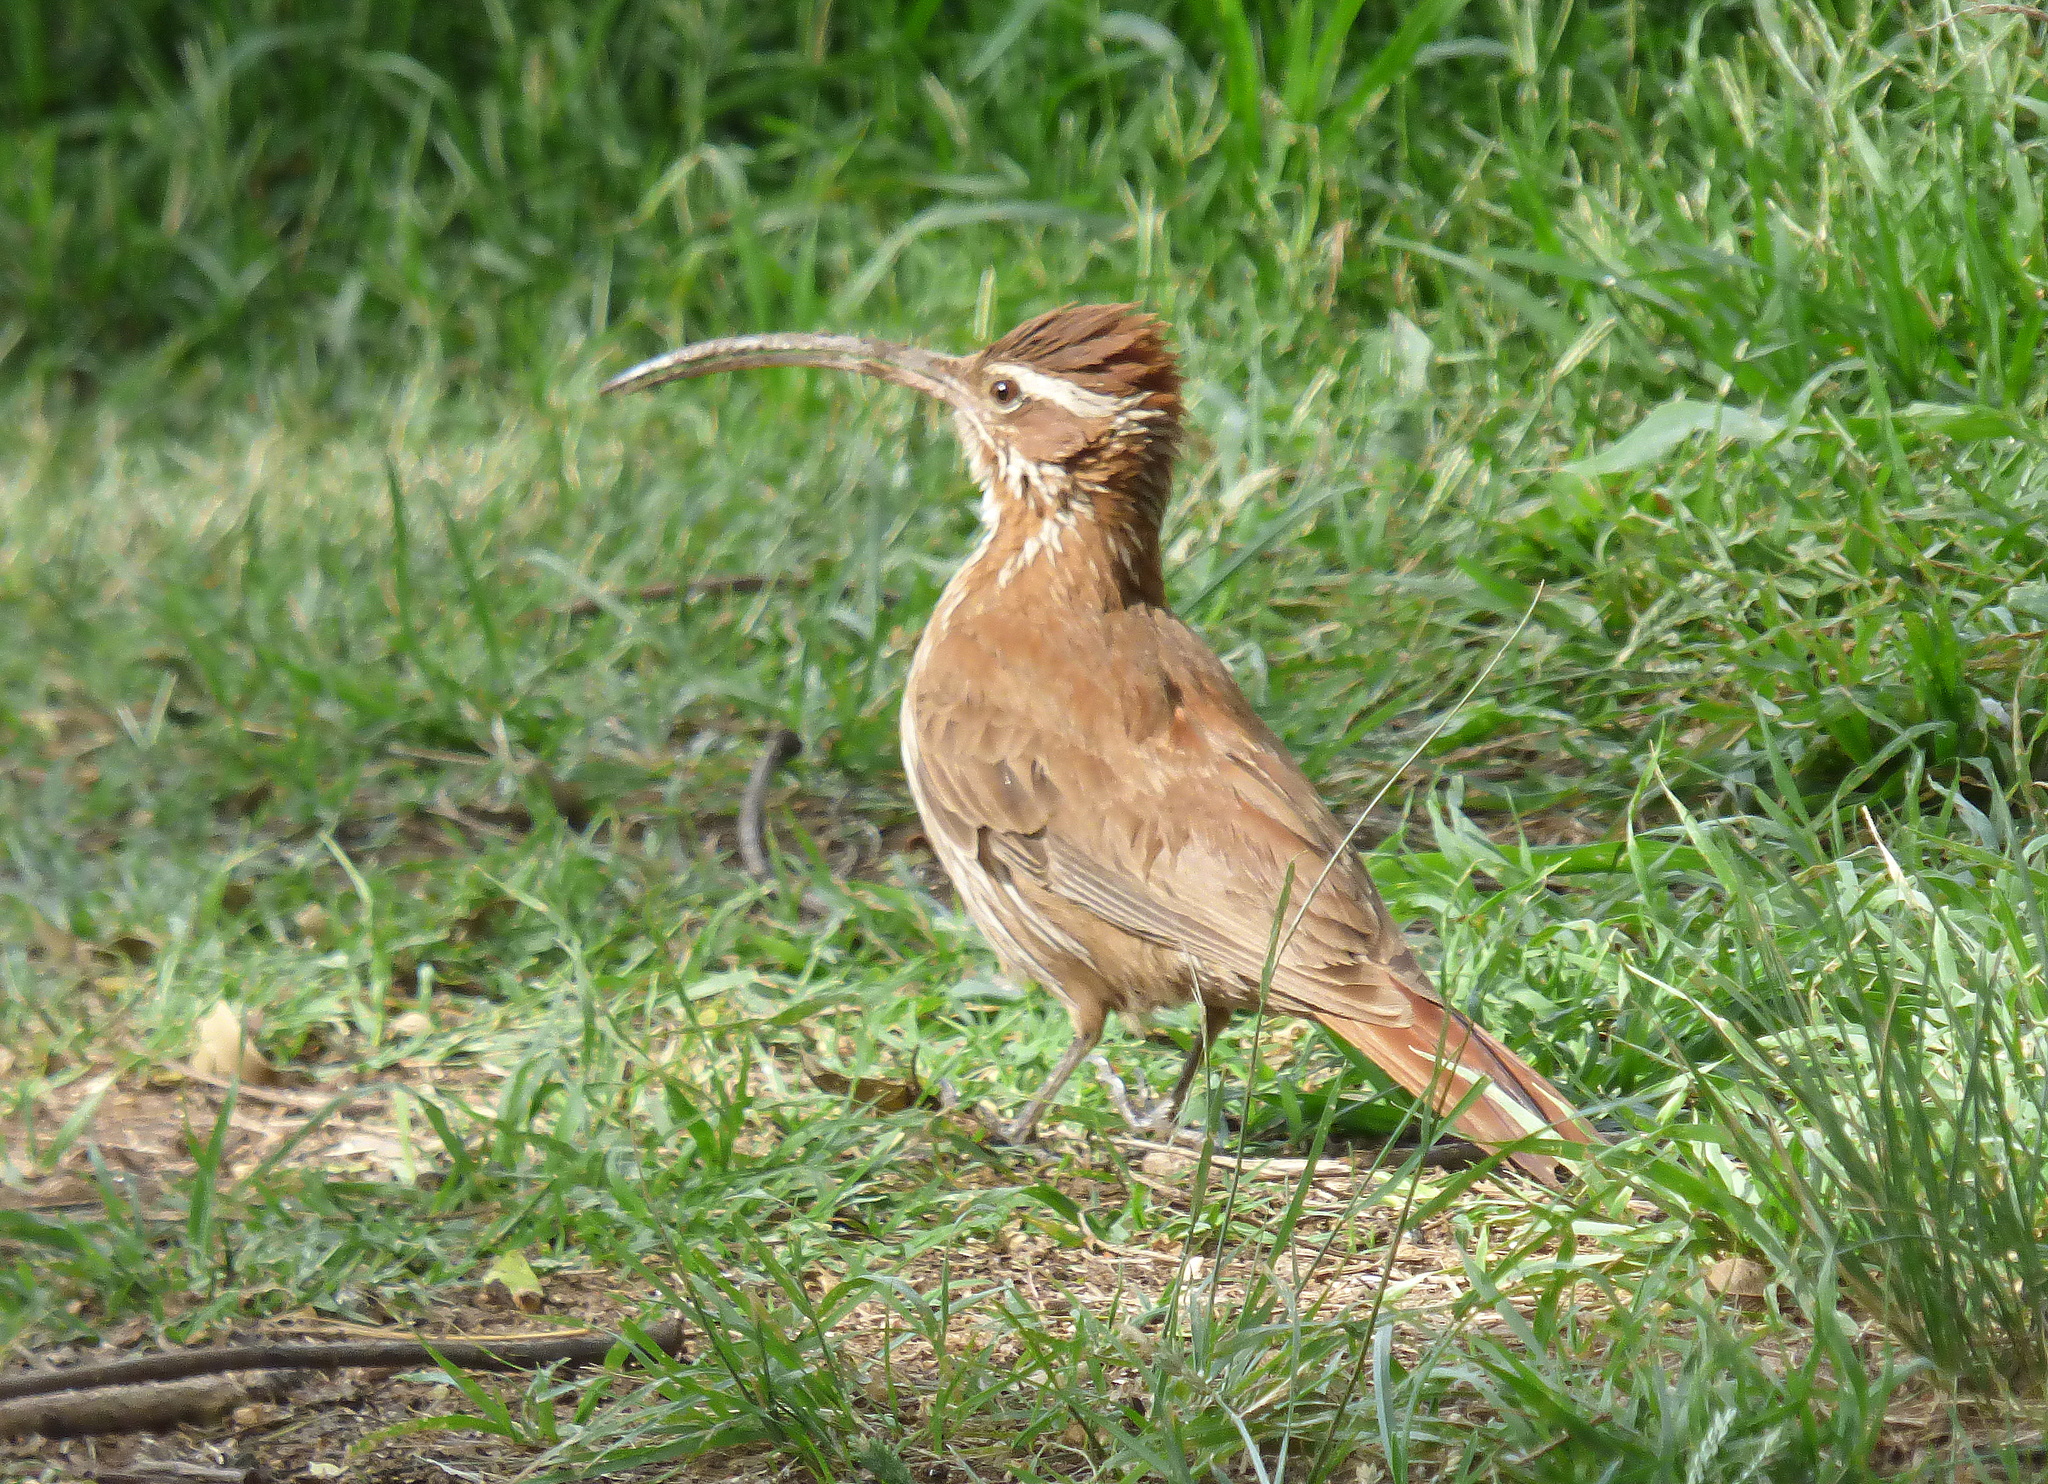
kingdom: Animalia
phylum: Chordata
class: Aves
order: Passeriformes
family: Furnariidae
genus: Drymornis
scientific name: Drymornis bridgesii
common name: Scimitar-billed woodcreeper
